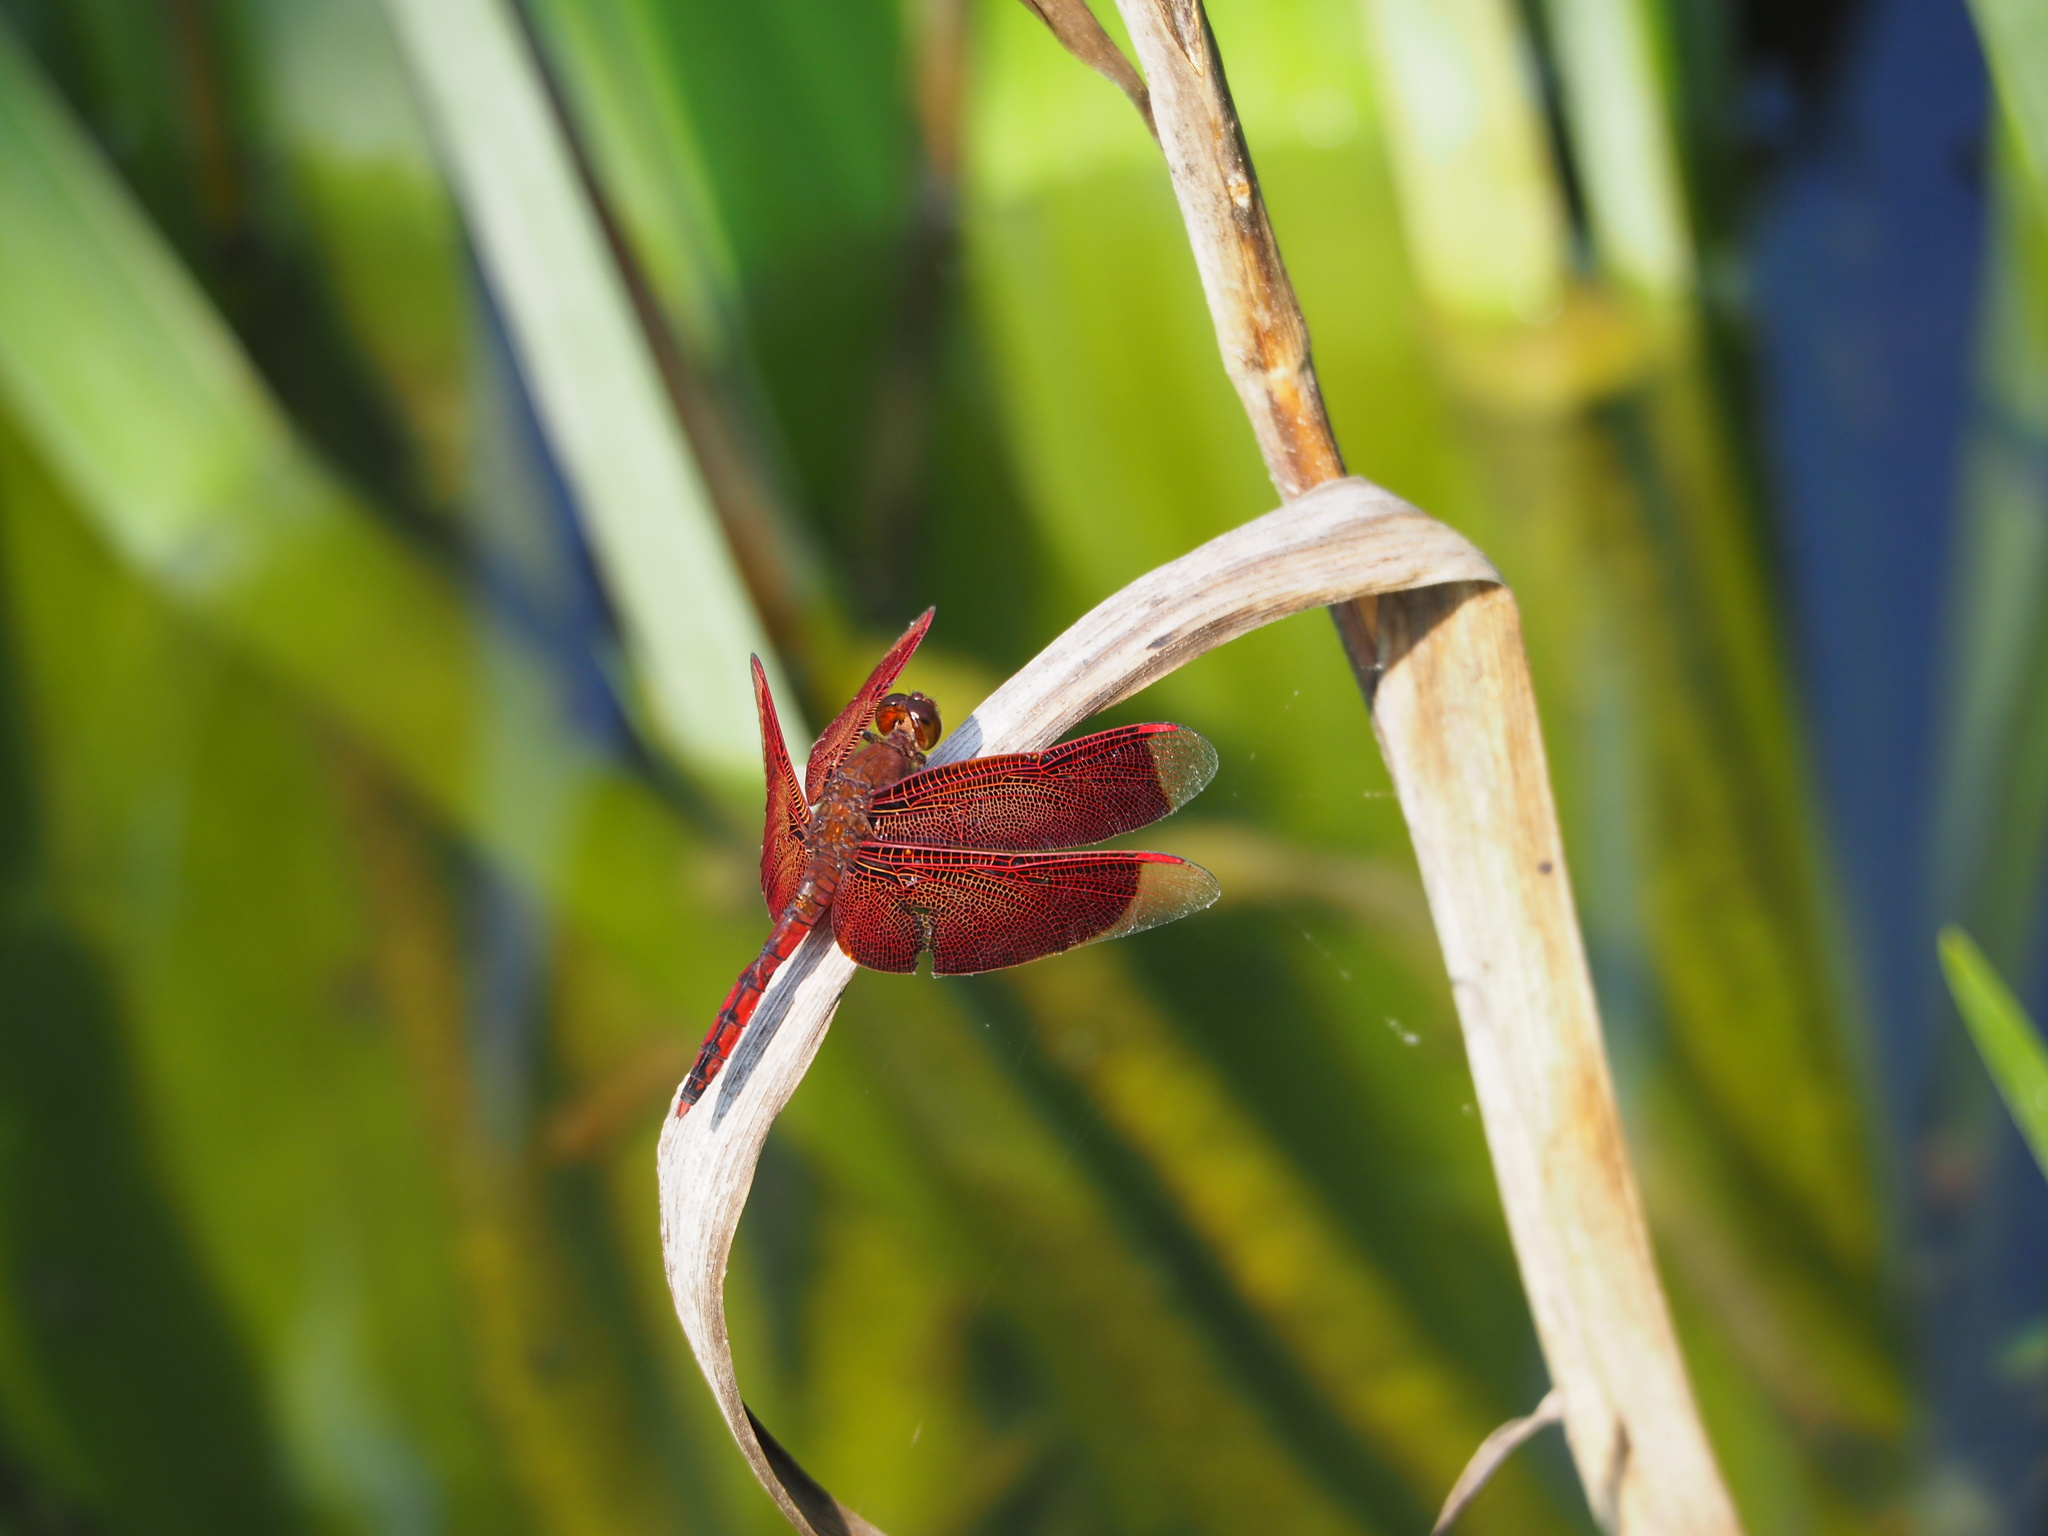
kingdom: Animalia
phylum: Arthropoda
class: Insecta
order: Odonata
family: Libellulidae
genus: Neurothemis
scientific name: Neurothemis taiwanensis
